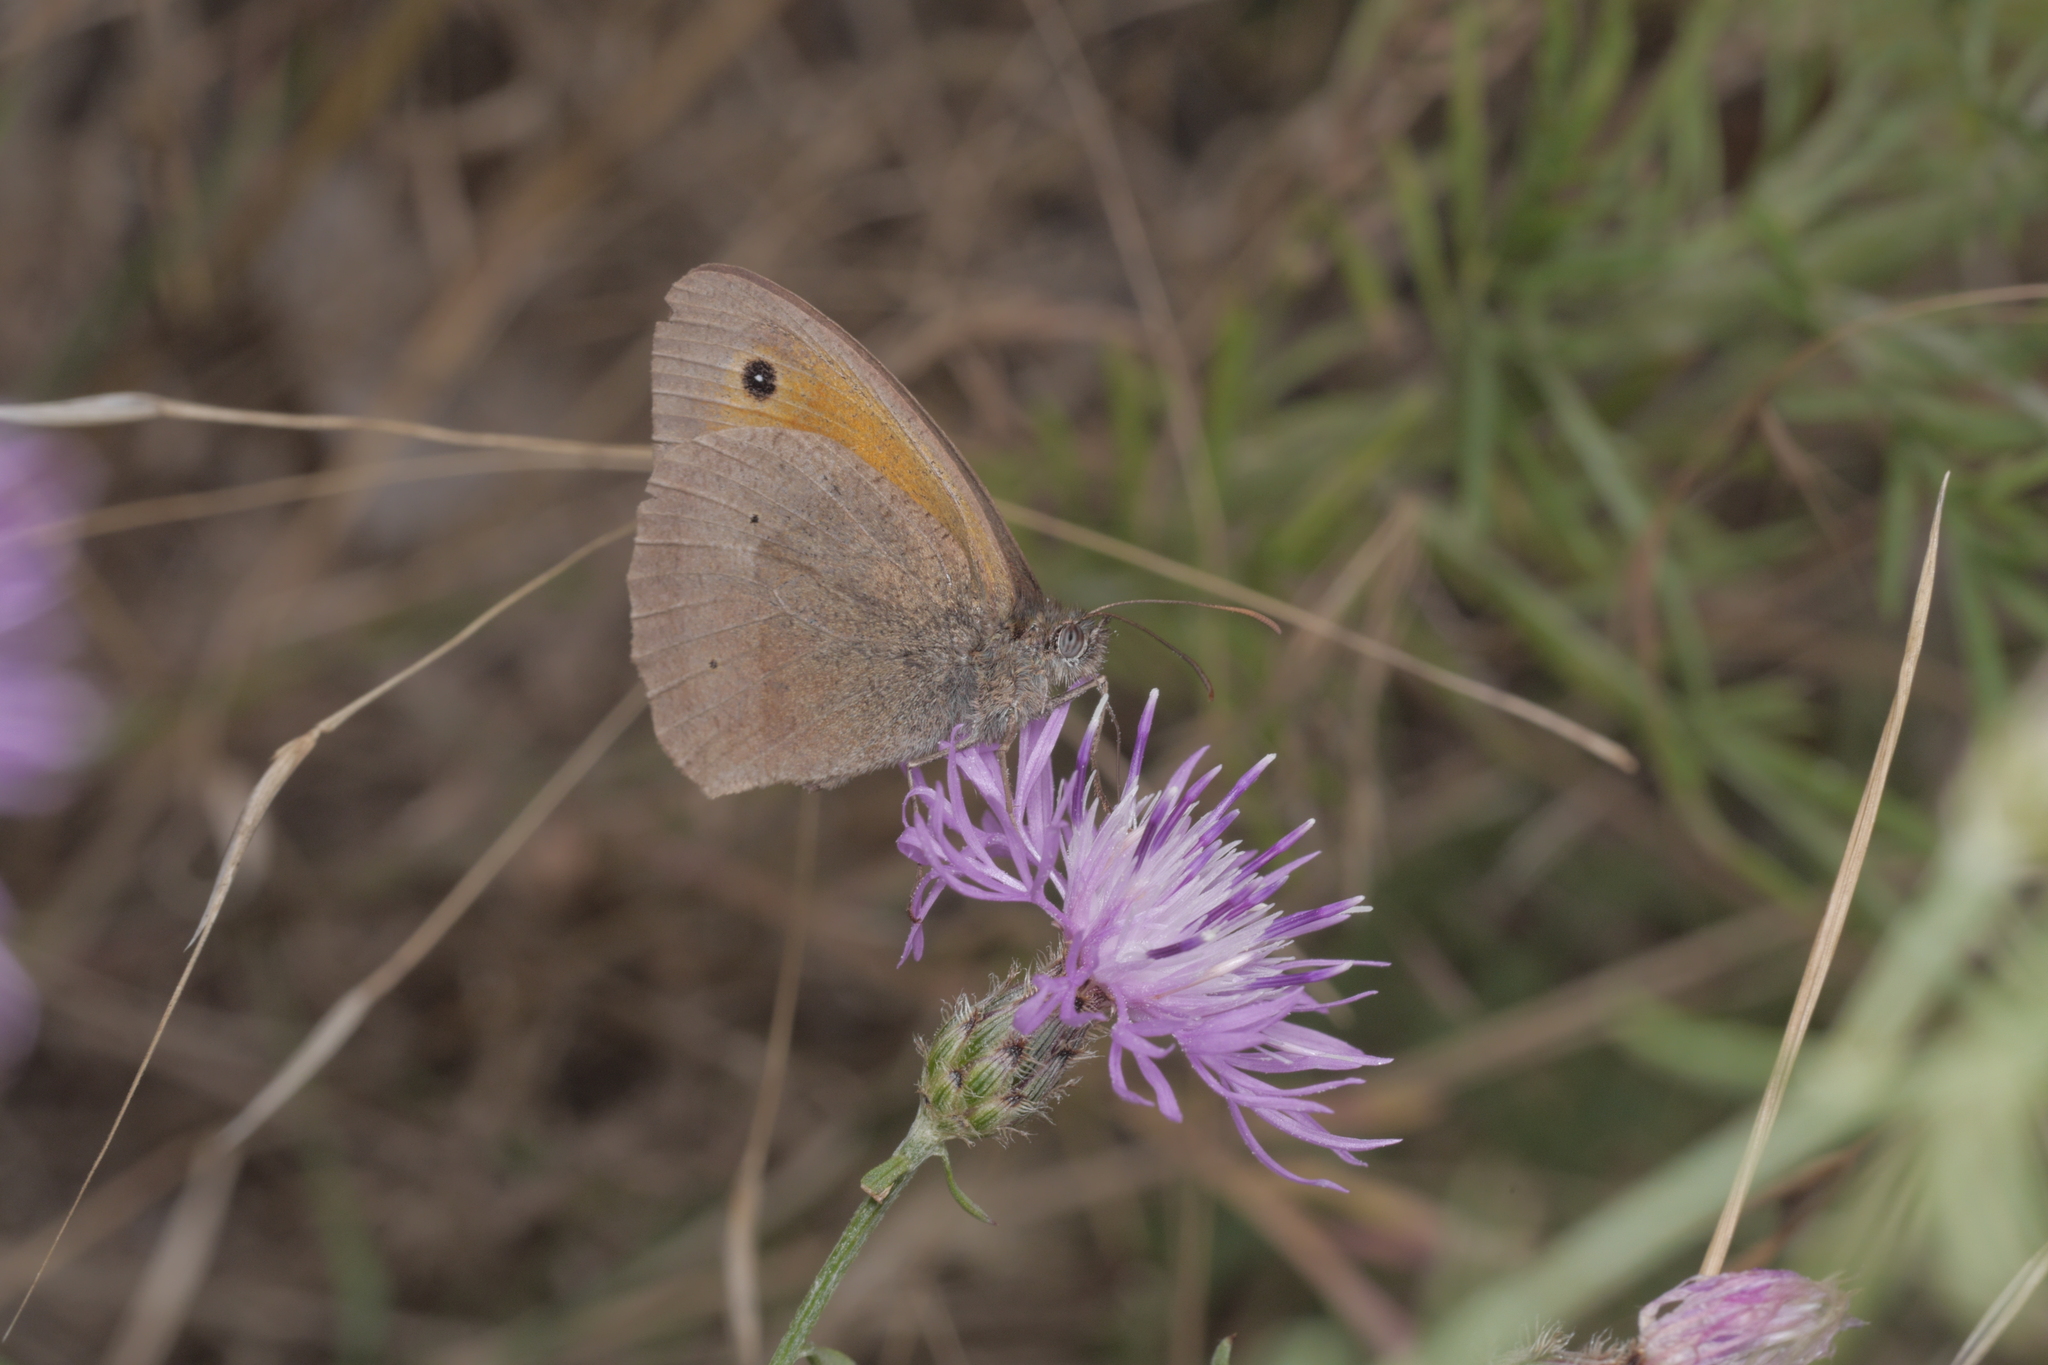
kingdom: Animalia
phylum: Arthropoda
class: Insecta
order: Lepidoptera
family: Nymphalidae
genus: Maniola
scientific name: Maniola jurtina
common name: Meadow brown
